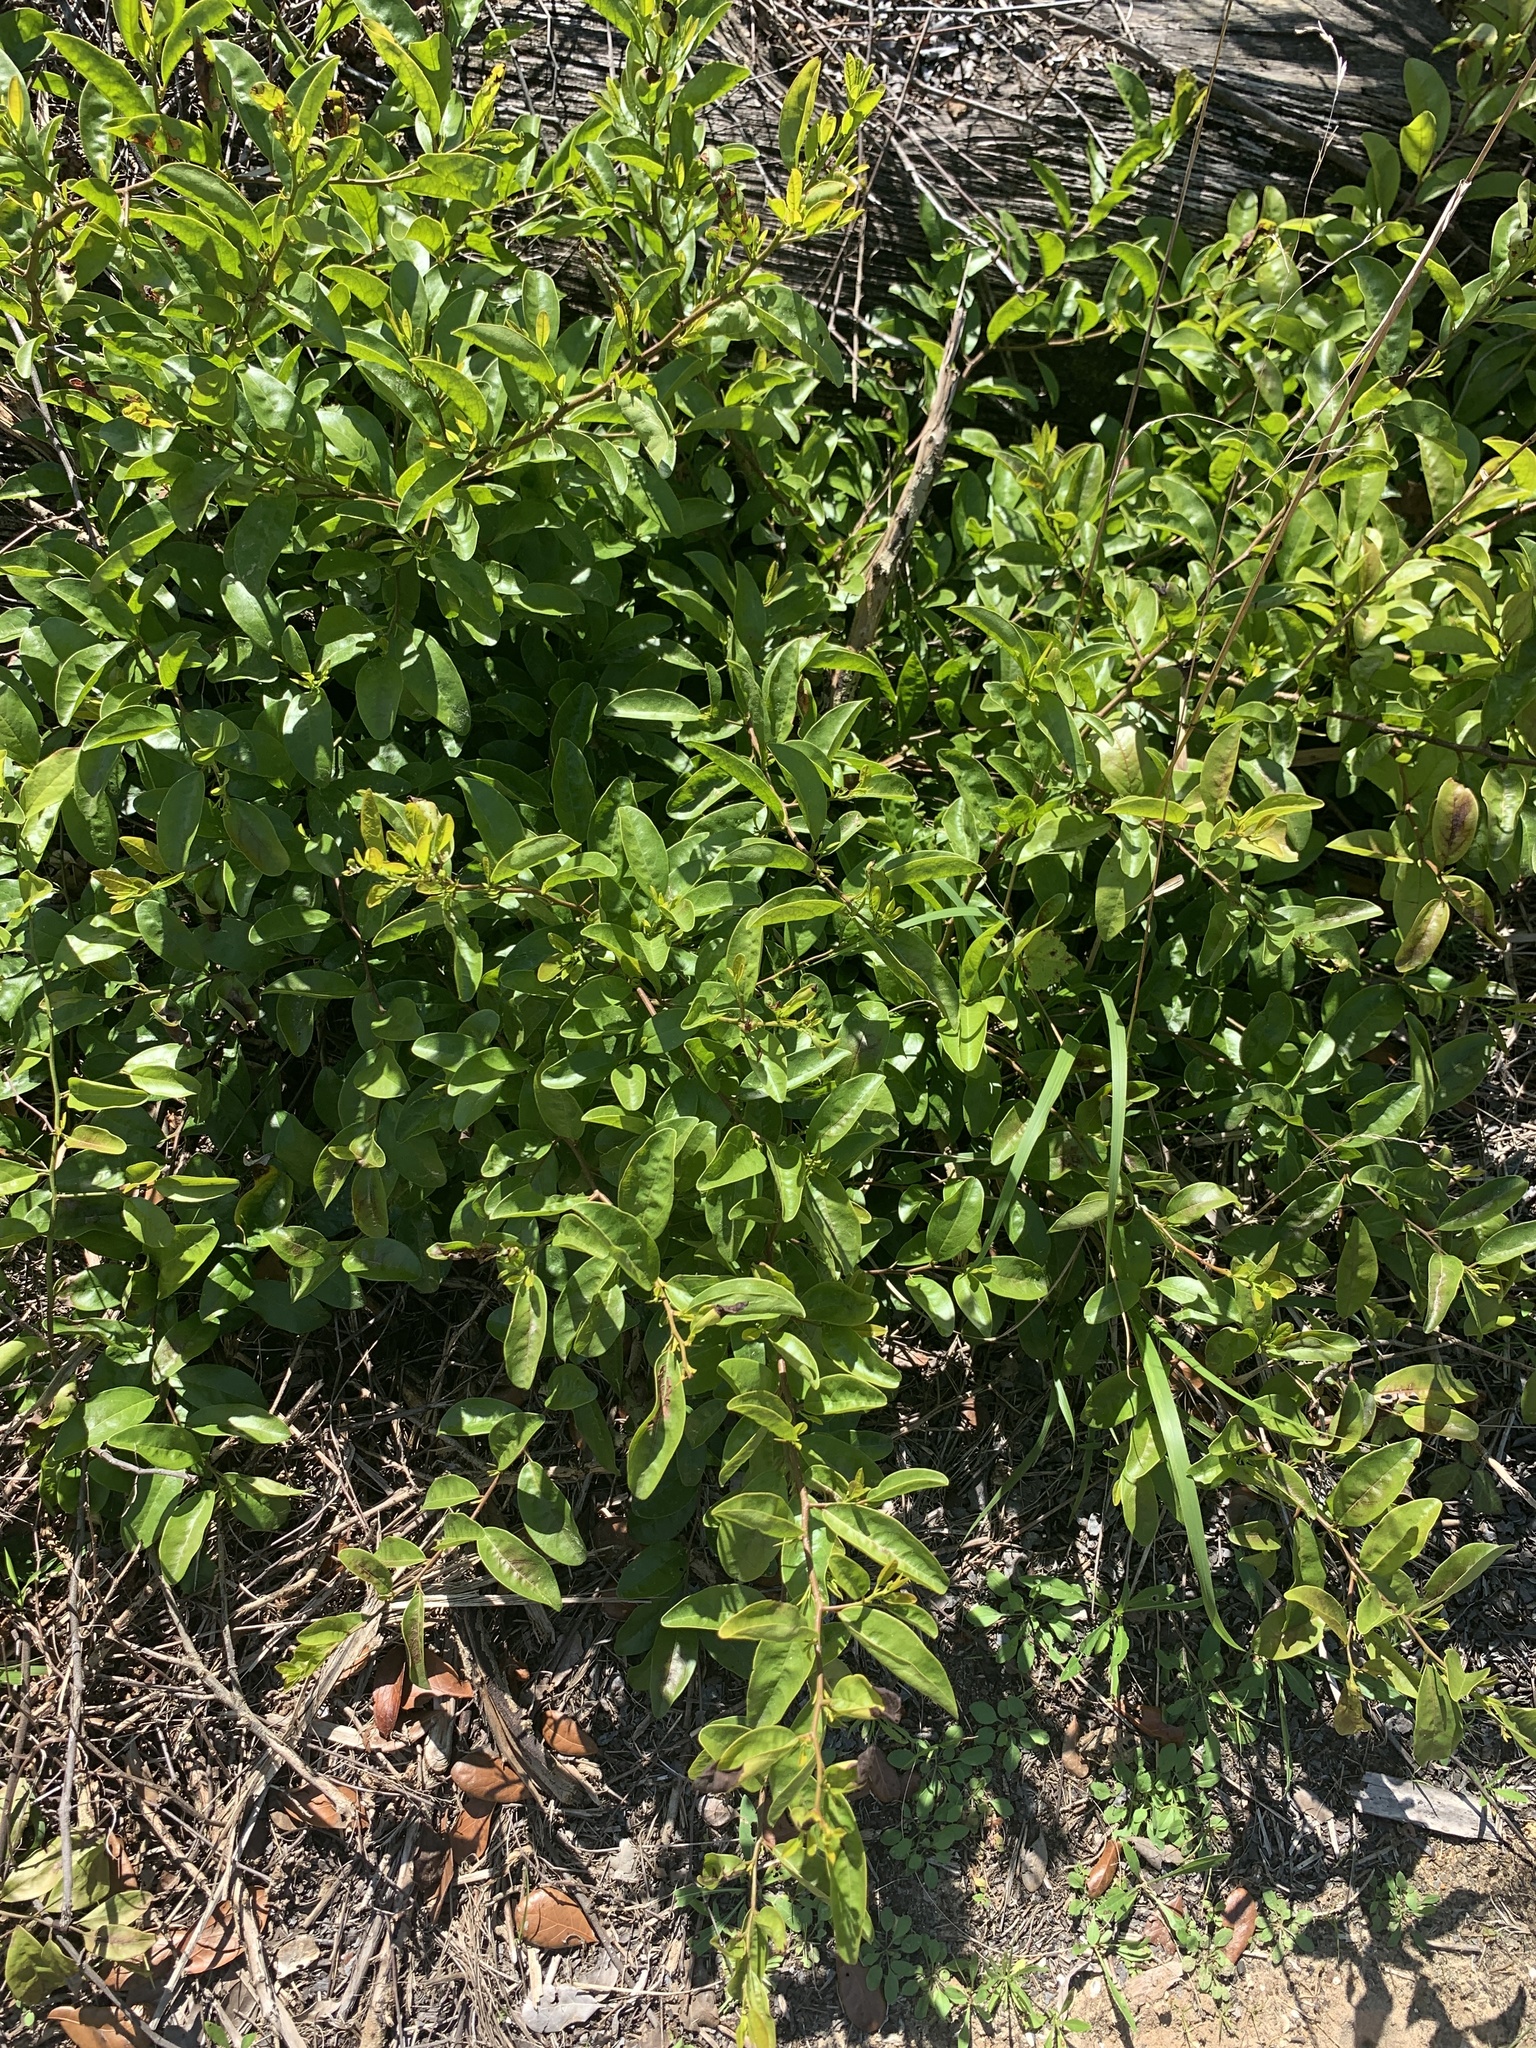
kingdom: Plantae
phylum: Tracheophyta
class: Magnoliopsida
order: Santalales
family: Ximeniaceae
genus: Ximenia
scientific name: Ximenia americana
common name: Tallowwood
